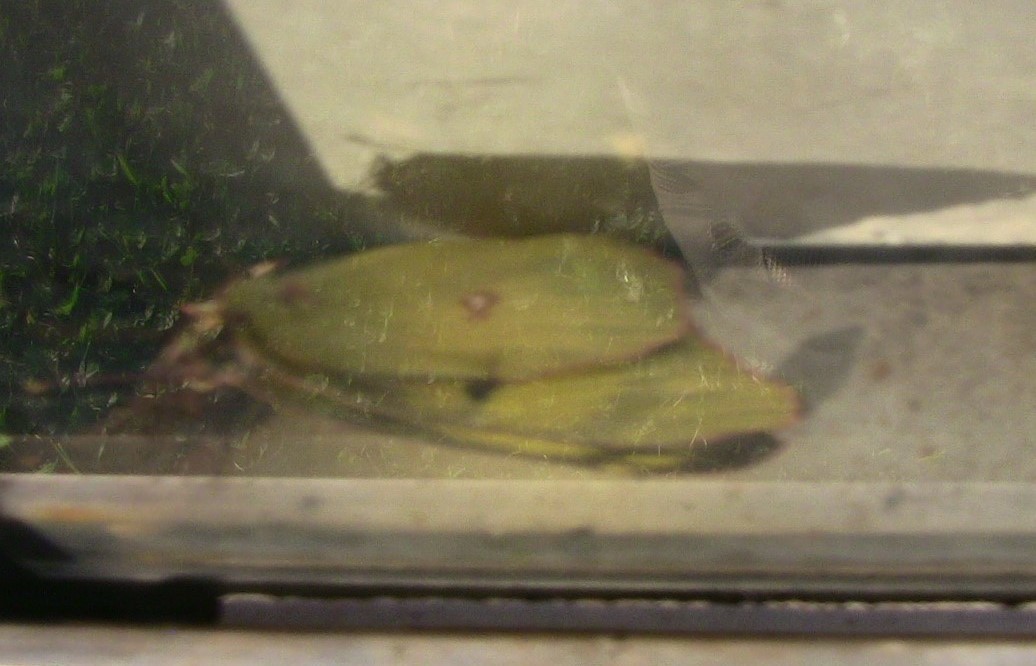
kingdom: Animalia
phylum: Arthropoda
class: Insecta
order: Lepidoptera
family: Pieridae
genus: Colias
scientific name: Colias philodice
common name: Clouded sulphur
